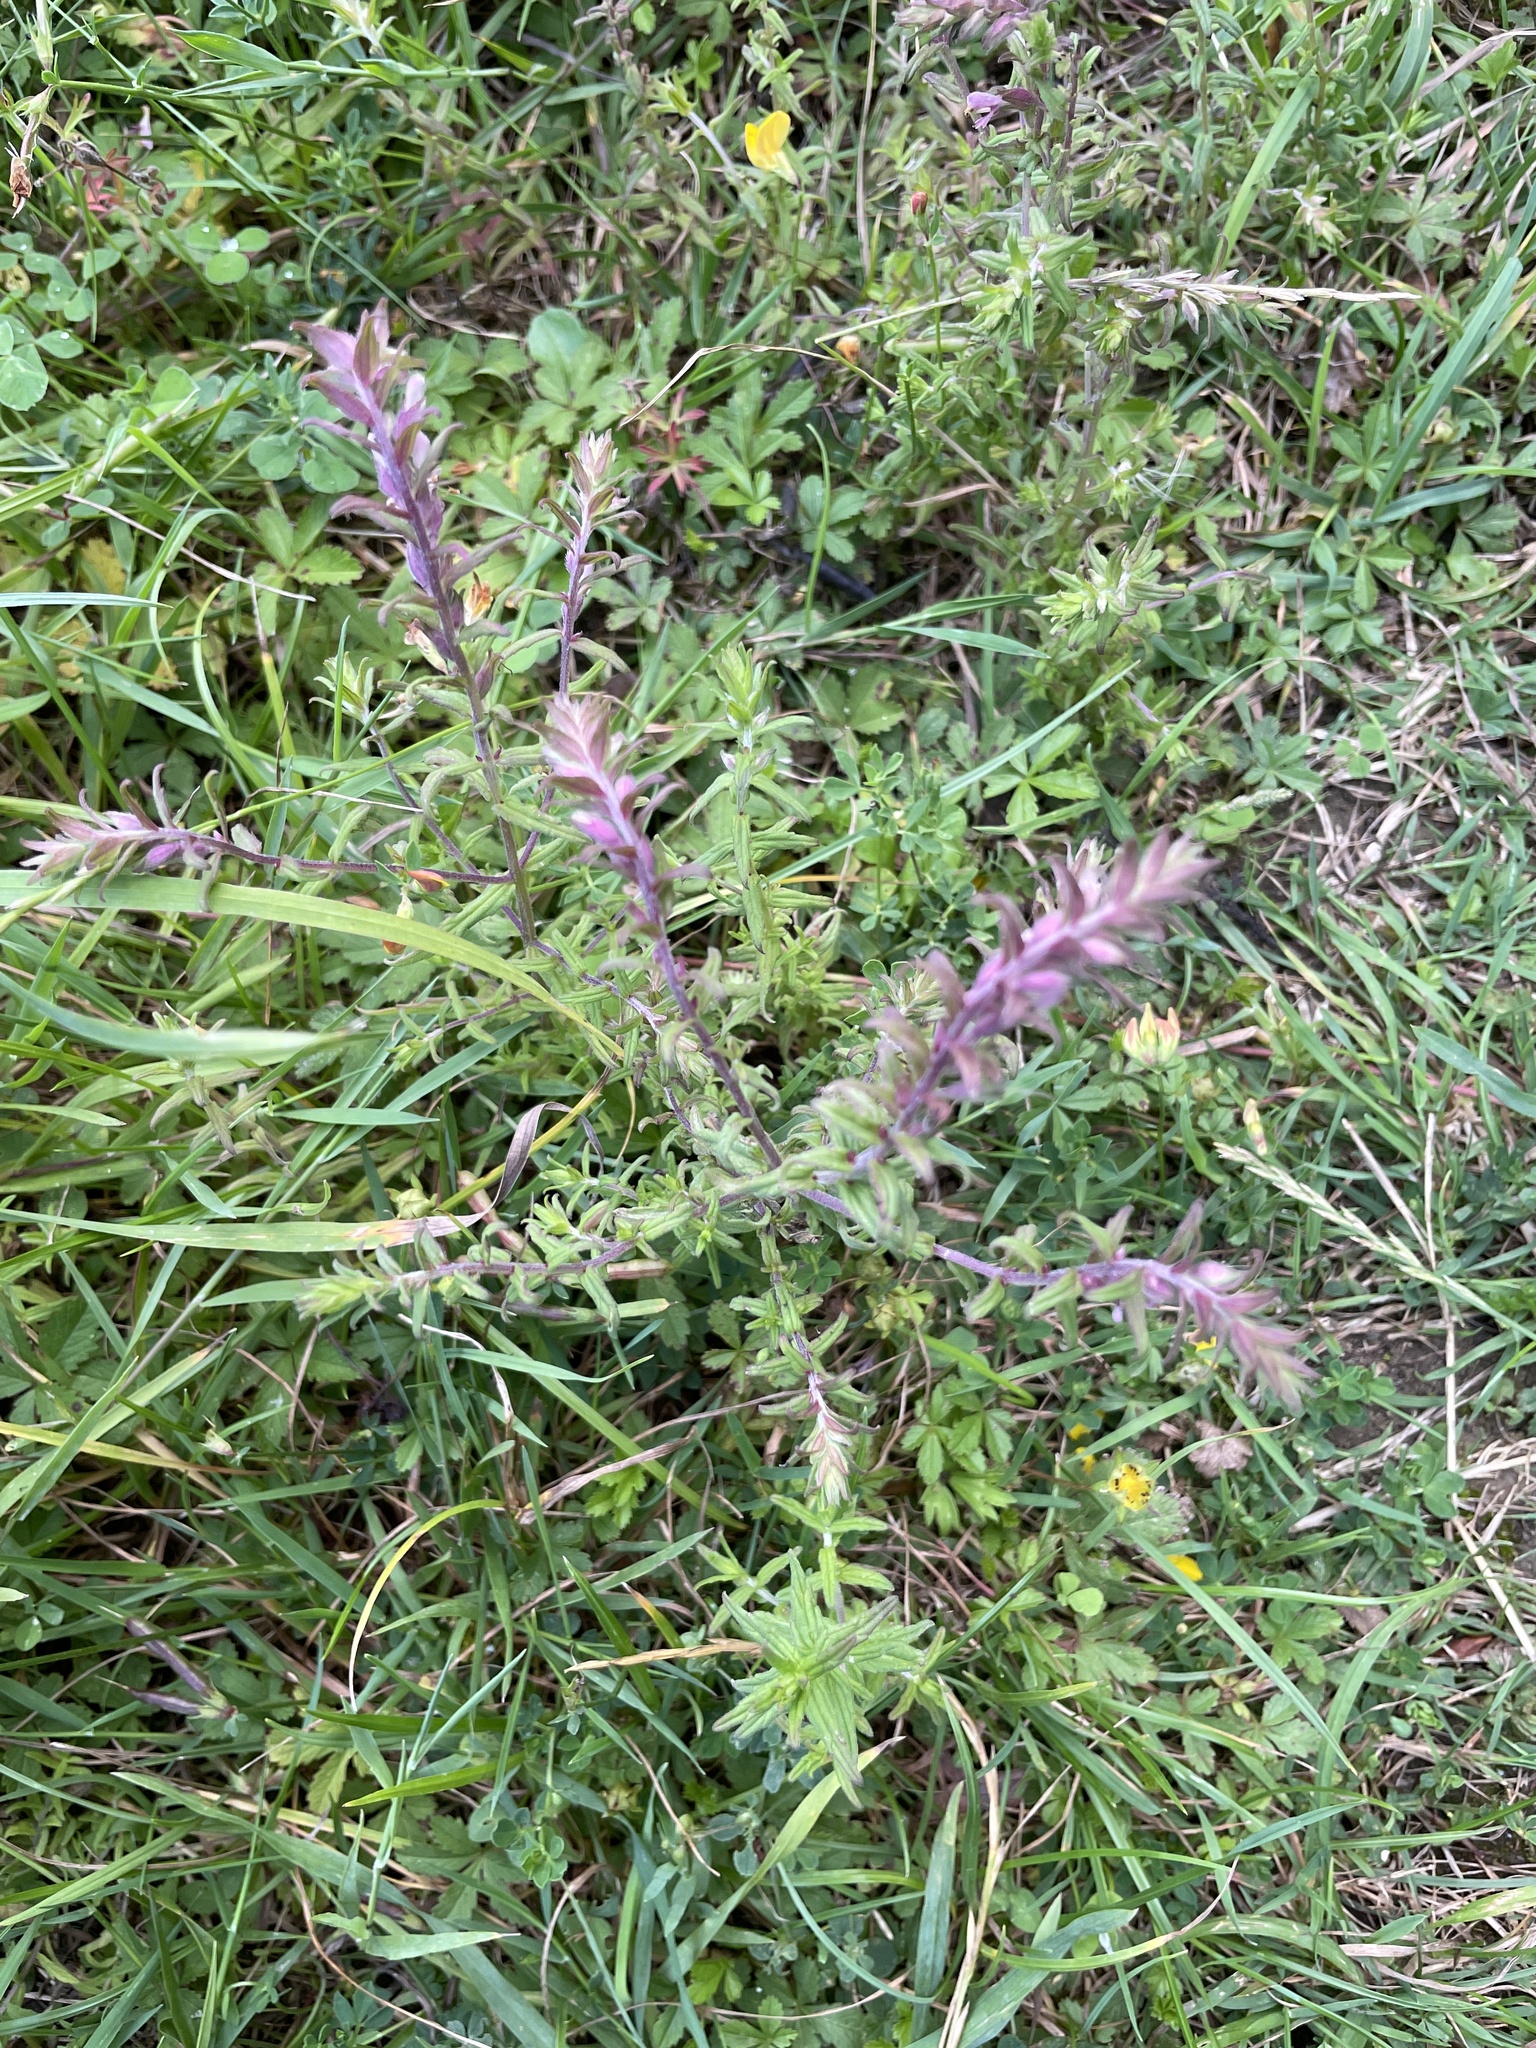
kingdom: Plantae
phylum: Tracheophyta
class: Magnoliopsida
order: Lamiales
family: Orobanchaceae
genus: Odontites
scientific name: Odontites vulgaris
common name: Broomrape
